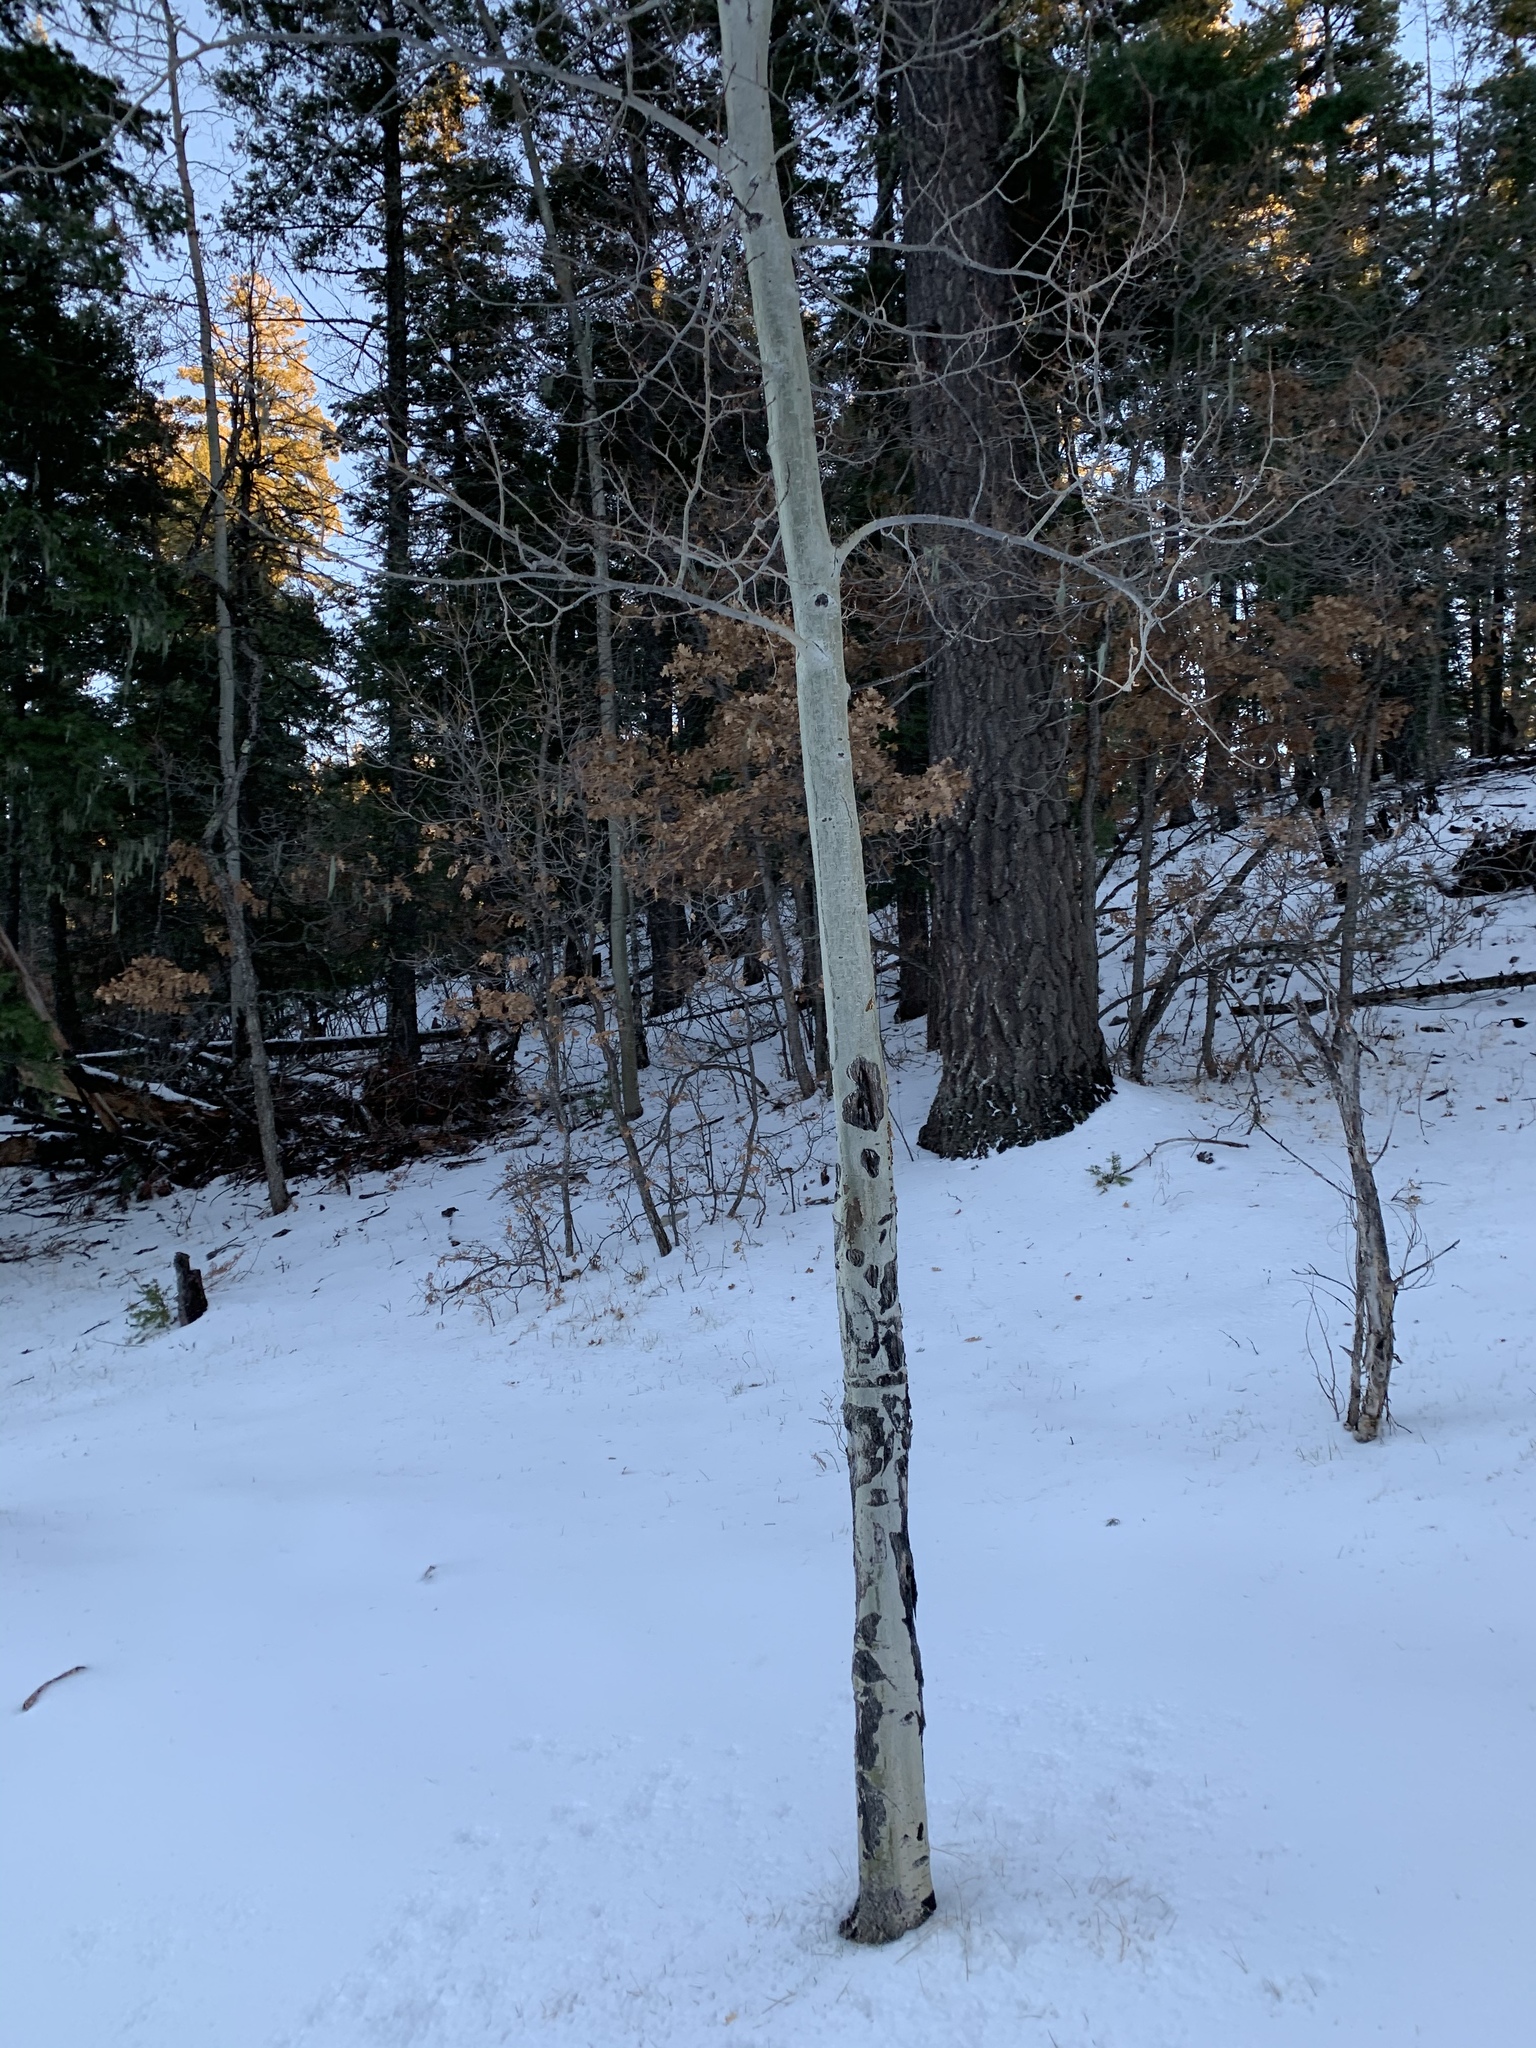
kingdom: Plantae
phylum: Tracheophyta
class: Magnoliopsida
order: Malpighiales
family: Salicaceae
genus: Populus
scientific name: Populus tremuloides
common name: Quaking aspen
